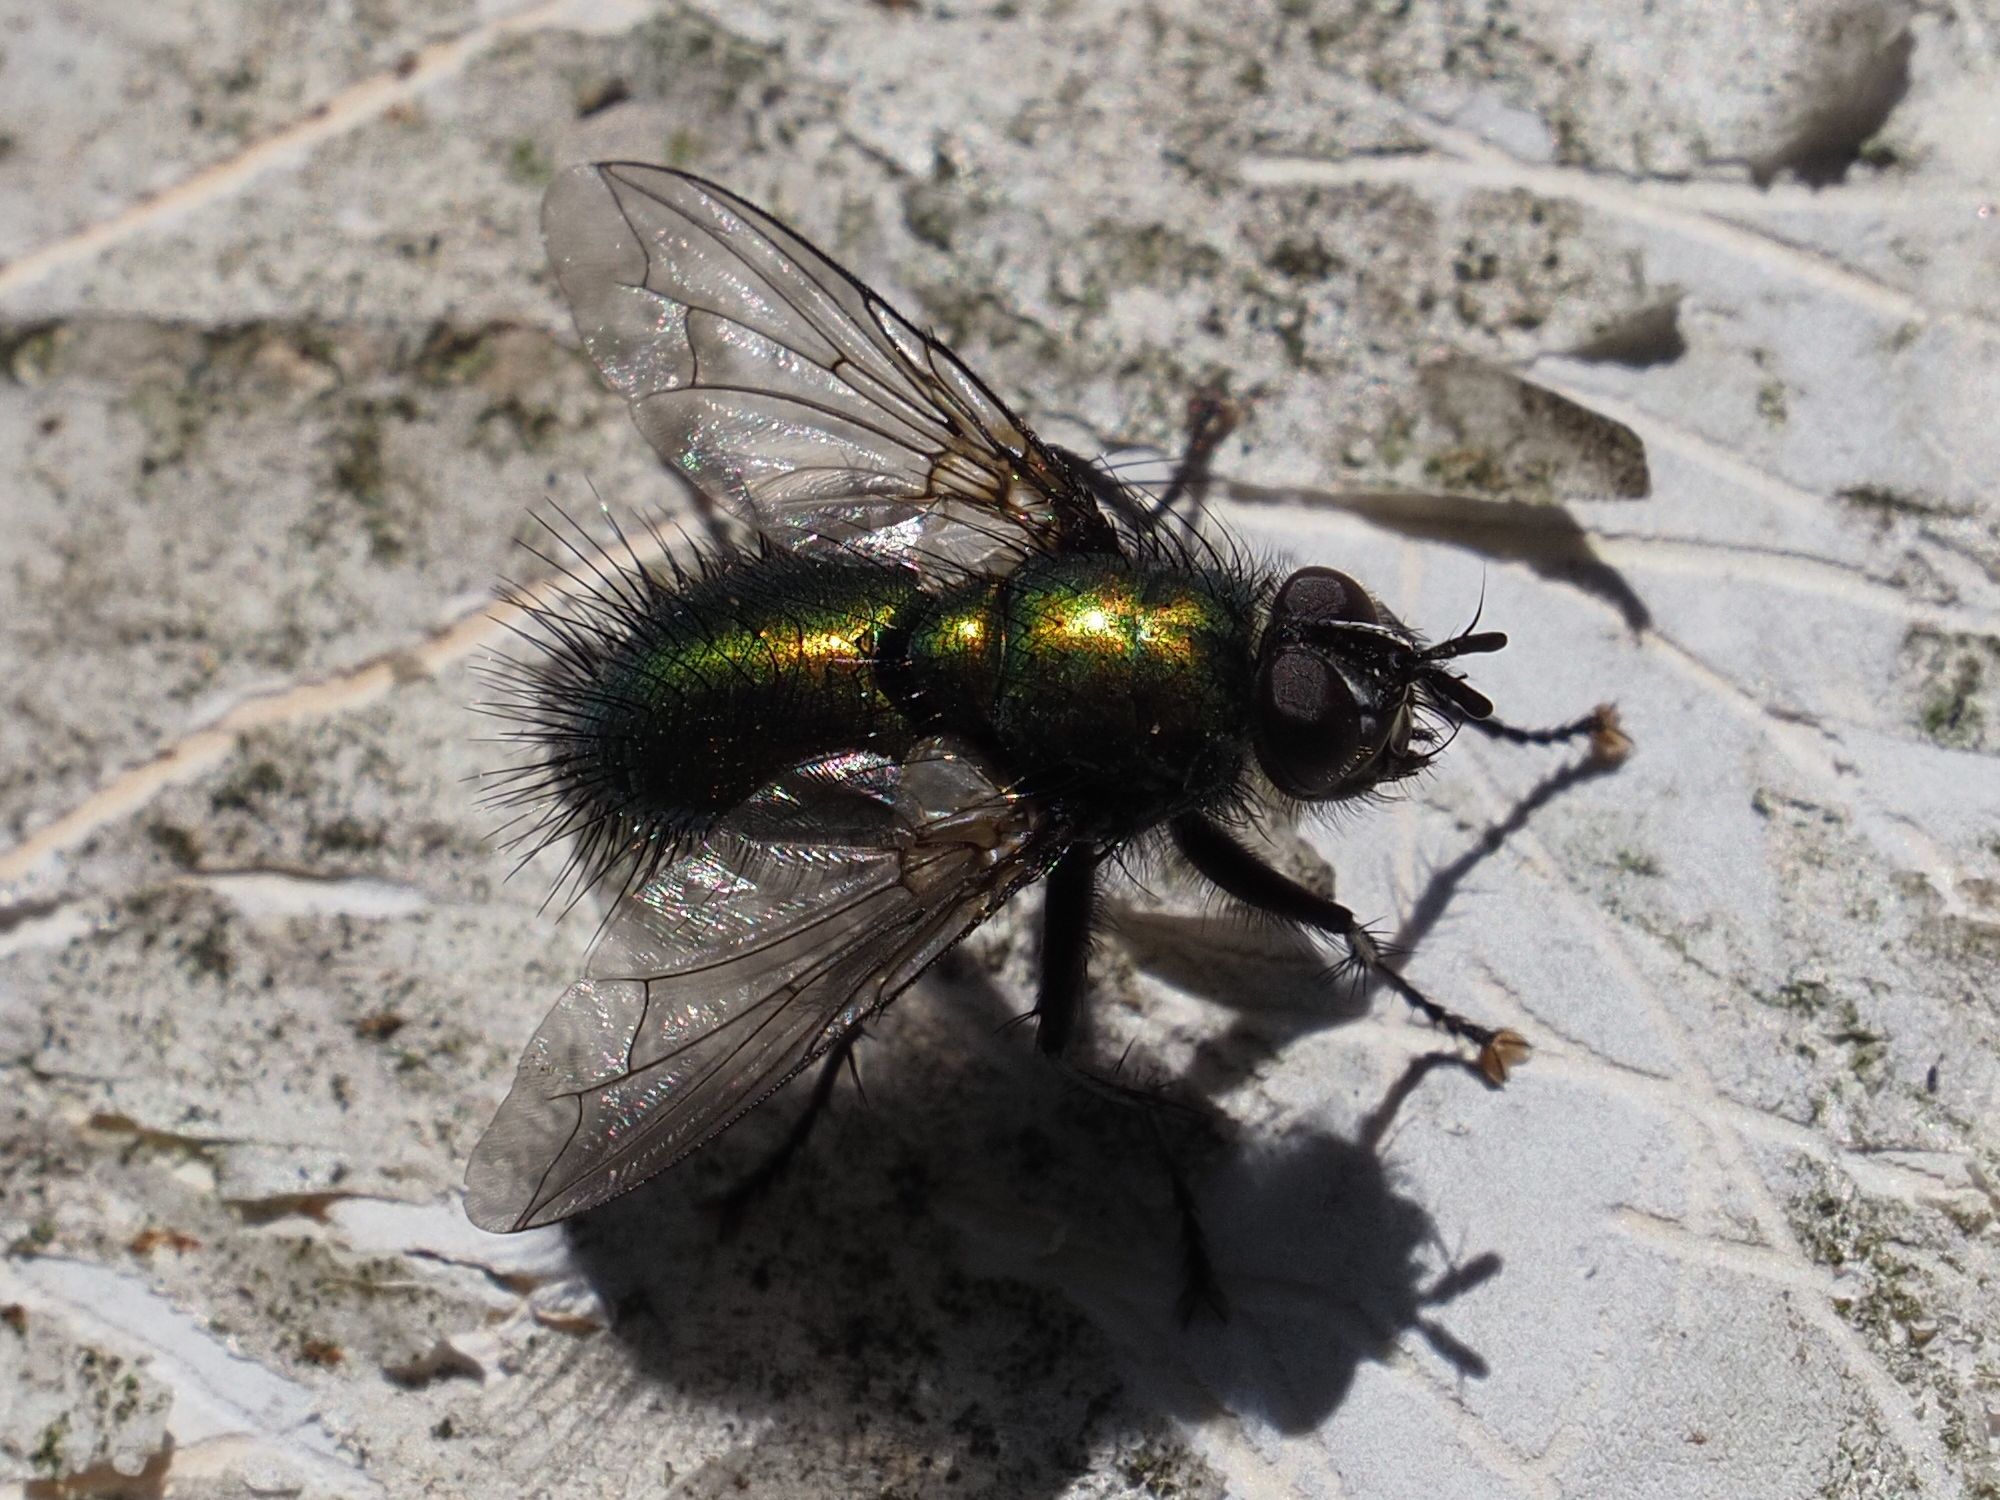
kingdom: Animalia
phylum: Arthropoda
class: Insecta
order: Diptera
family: Tachinidae
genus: Gymnocheta
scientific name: Gymnocheta viridis
